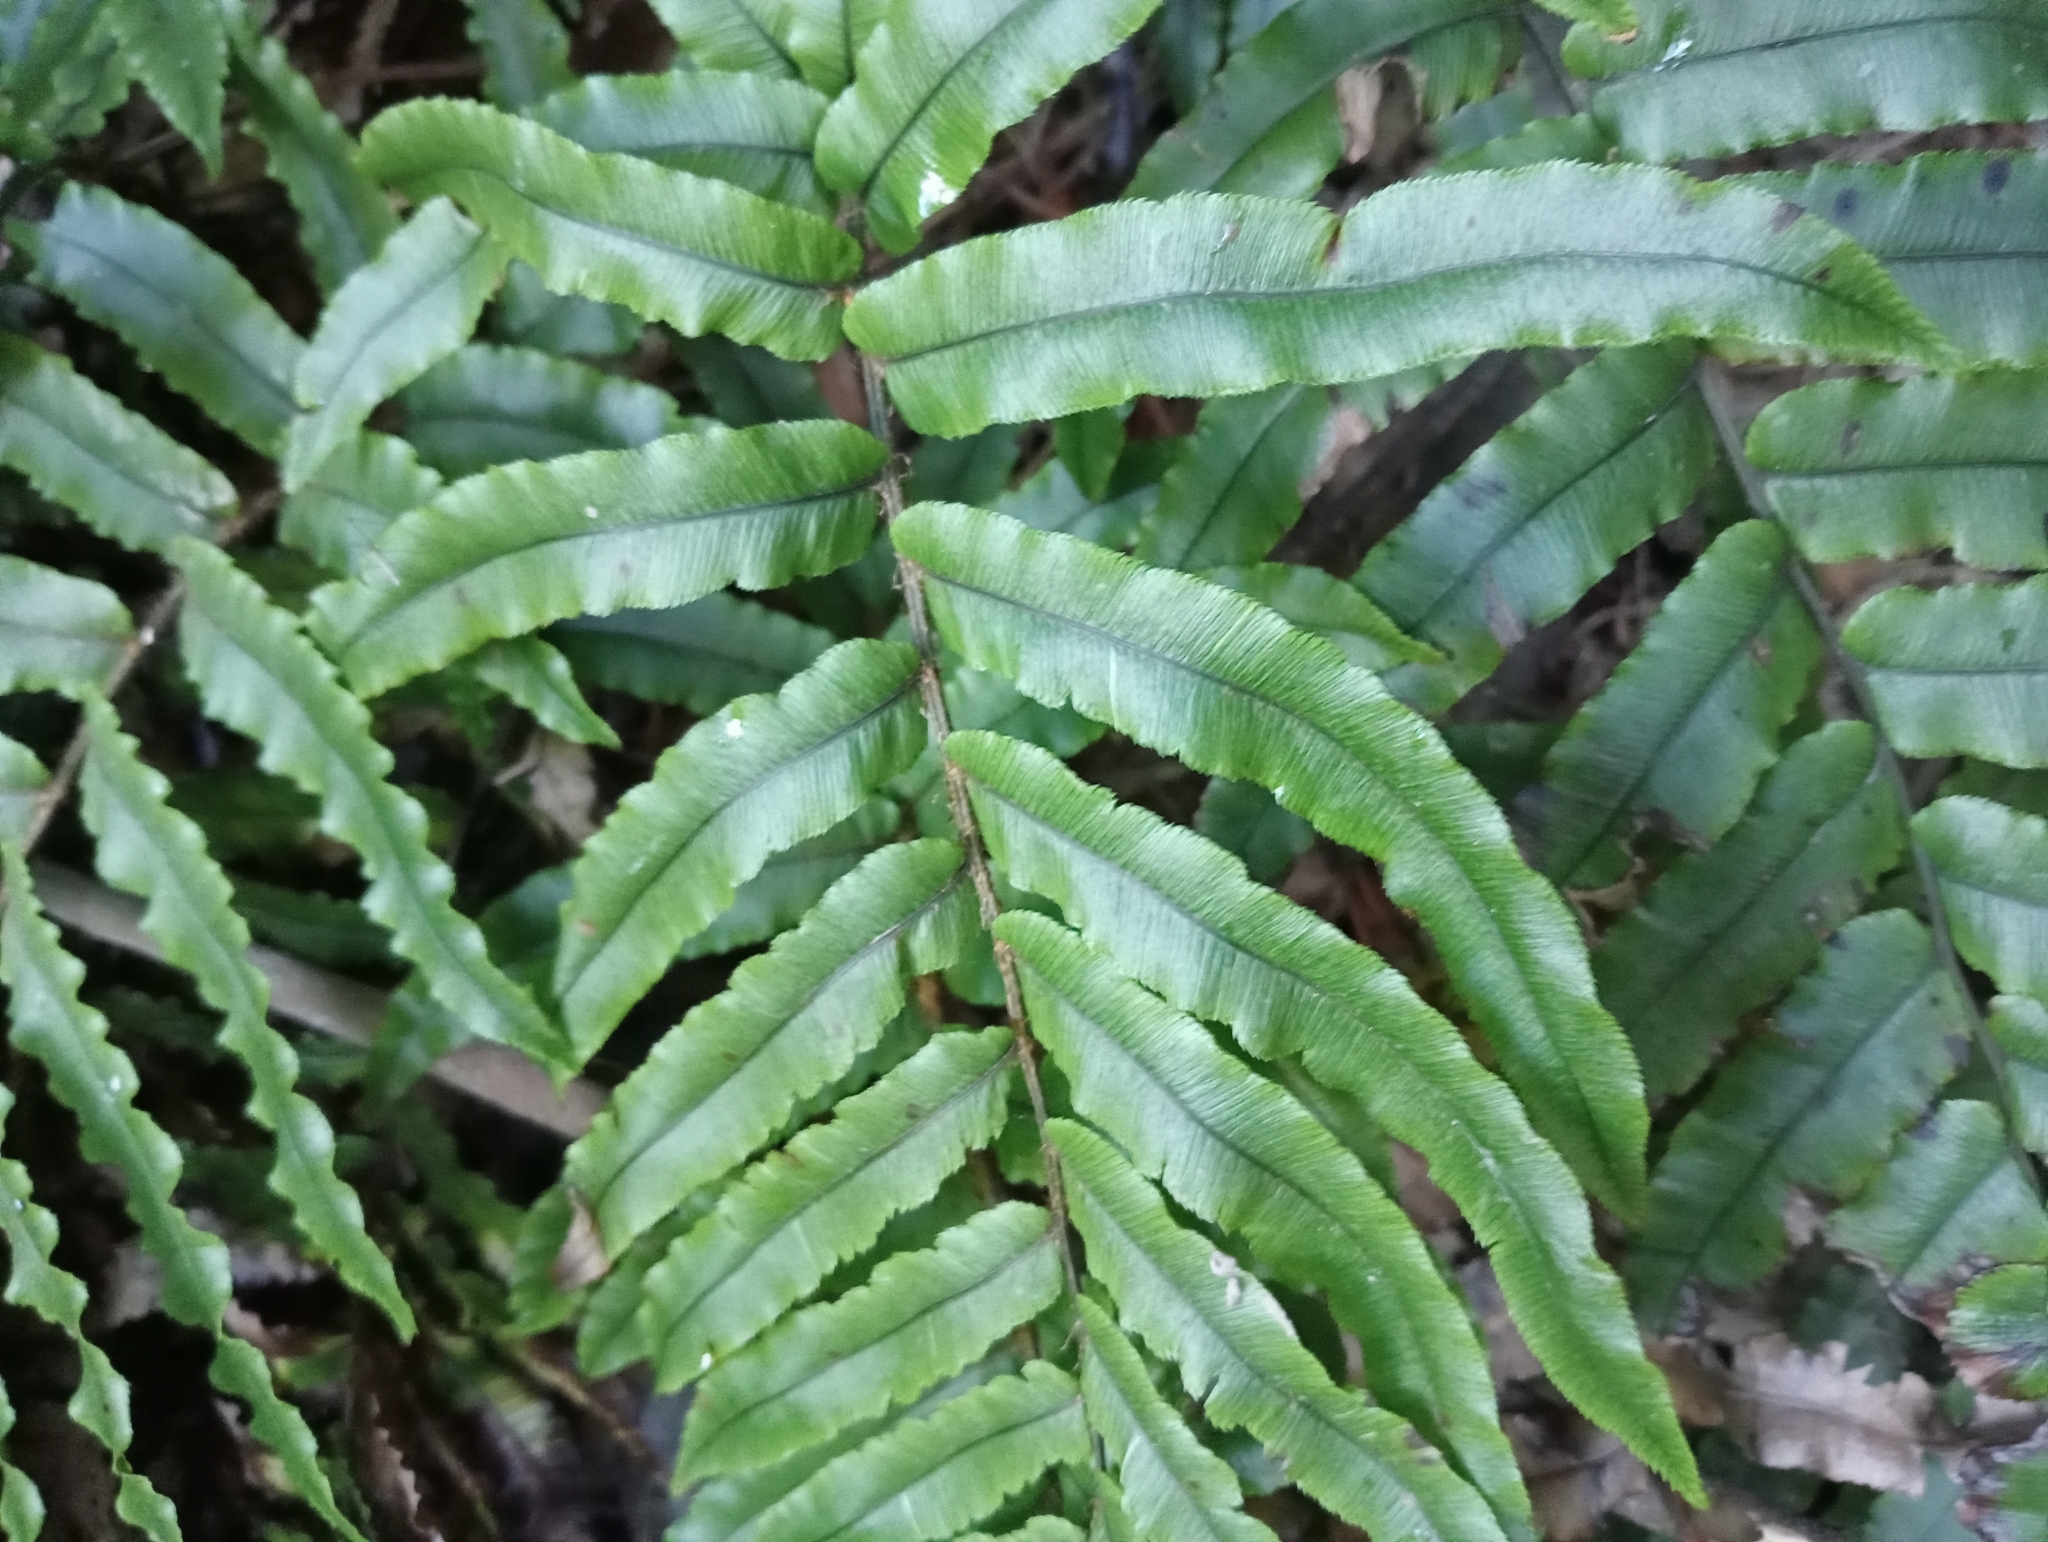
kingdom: Plantae
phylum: Tracheophyta
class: Polypodiopsida
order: Polypodiales
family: Blechnaceae
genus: Parablechnum
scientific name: Parablechnum procerum
